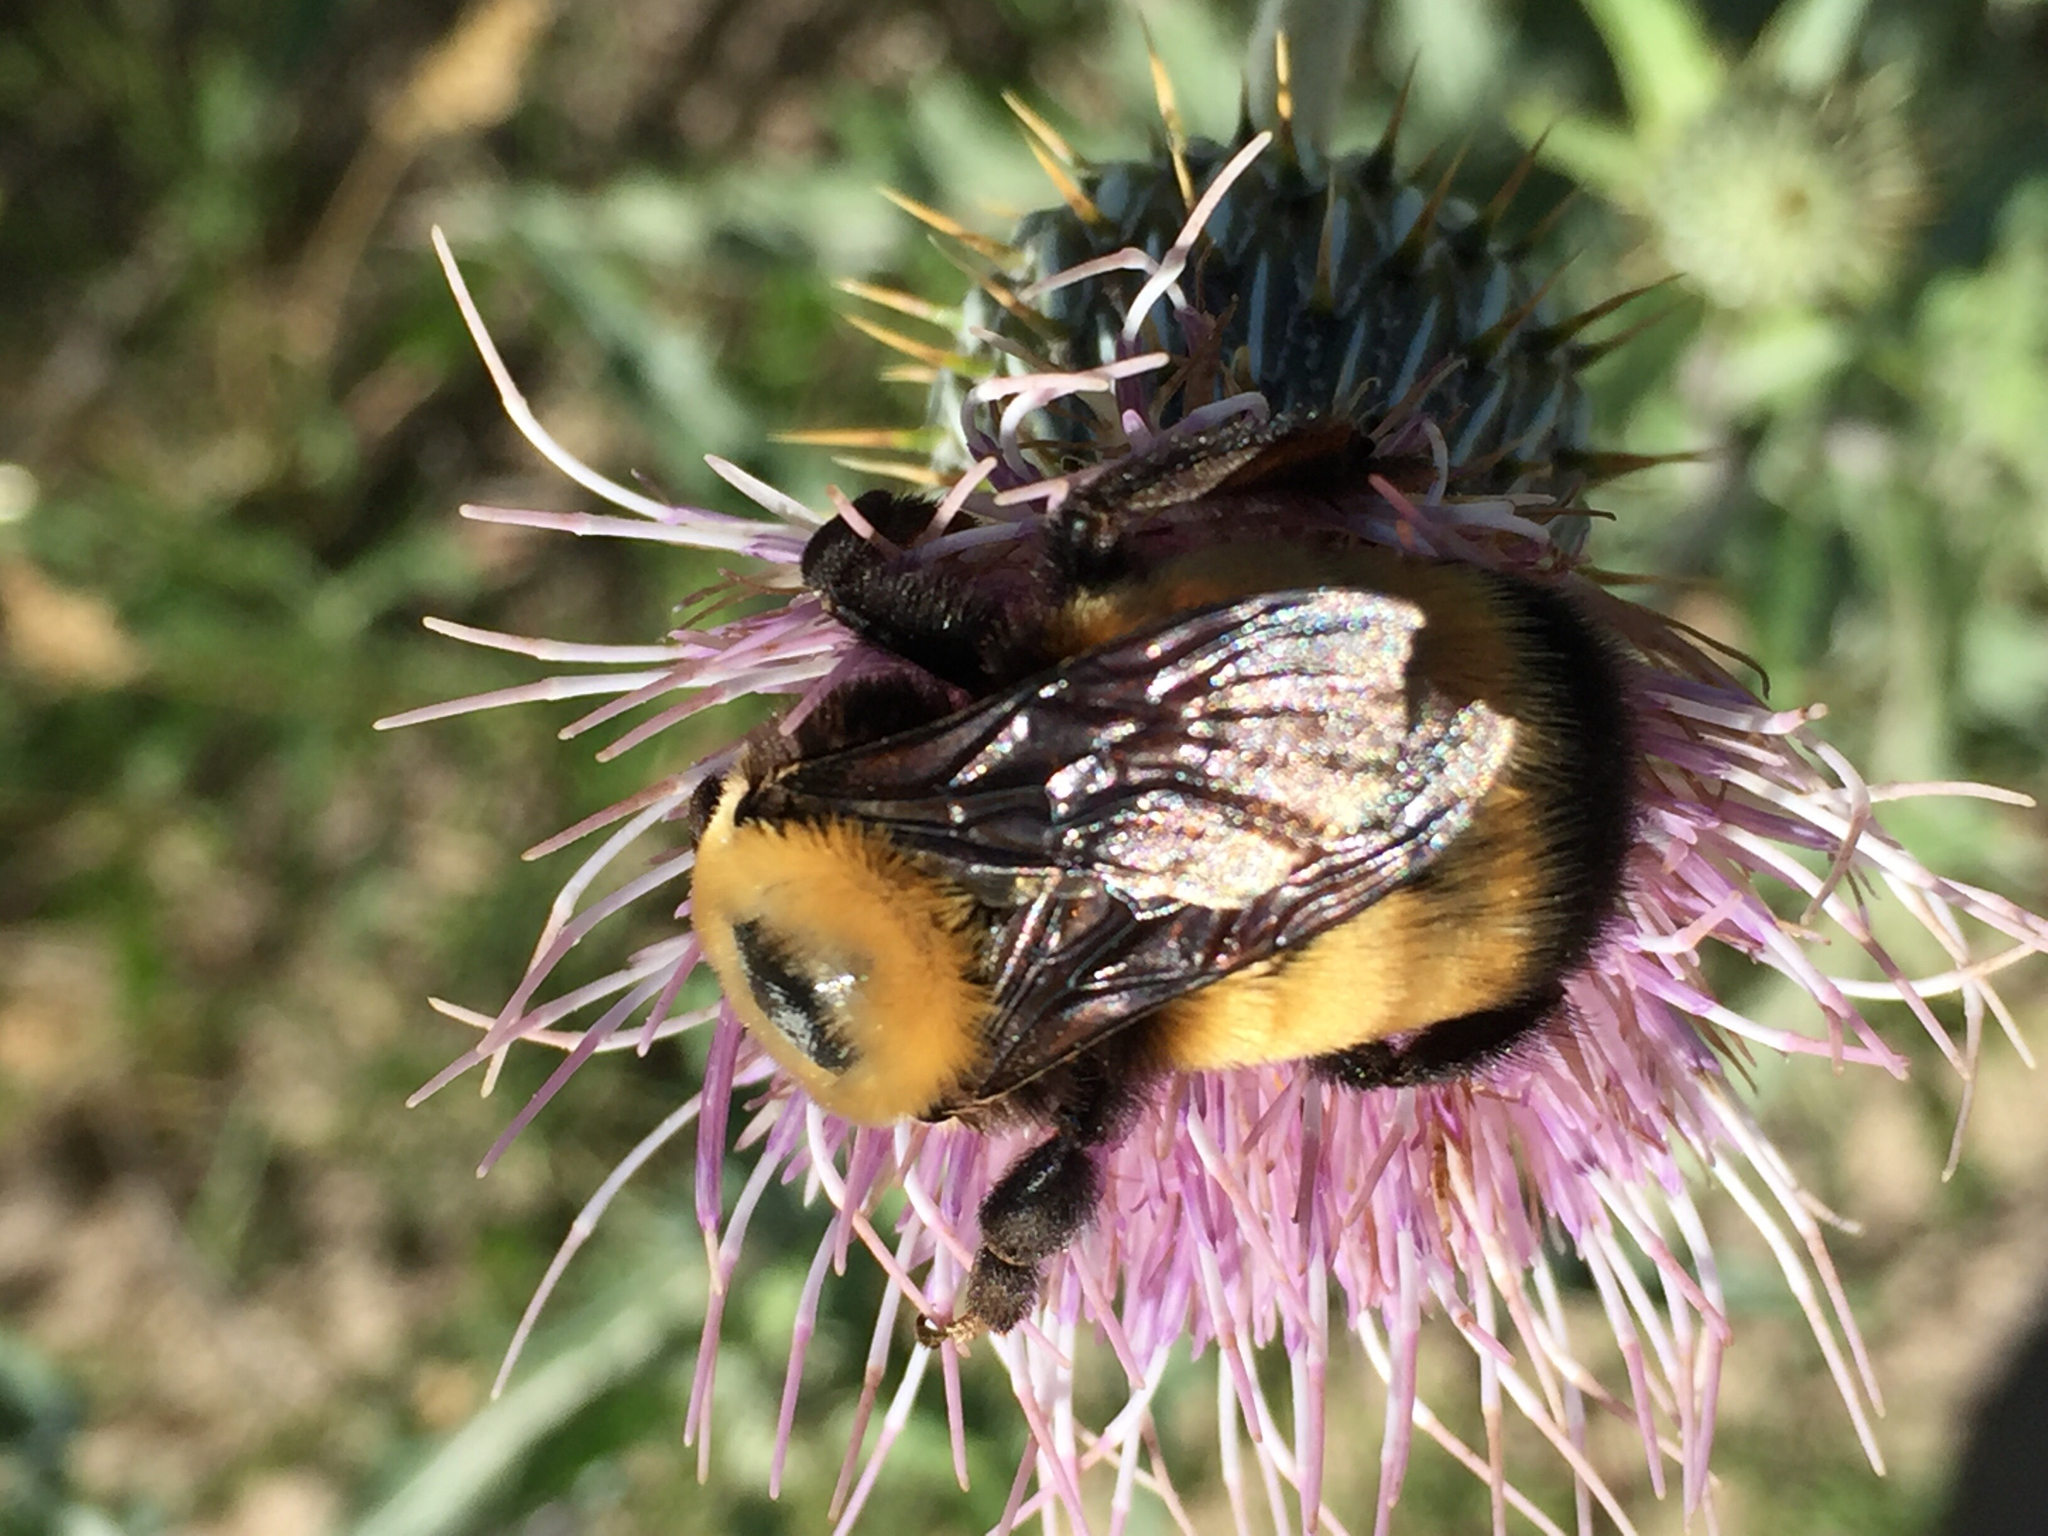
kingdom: Animalia
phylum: Arthropoda
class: Insecta
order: Hymenoptera
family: Apidae
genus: Bombus
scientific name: Bombus nevadensis
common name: Nevada bumble bee
